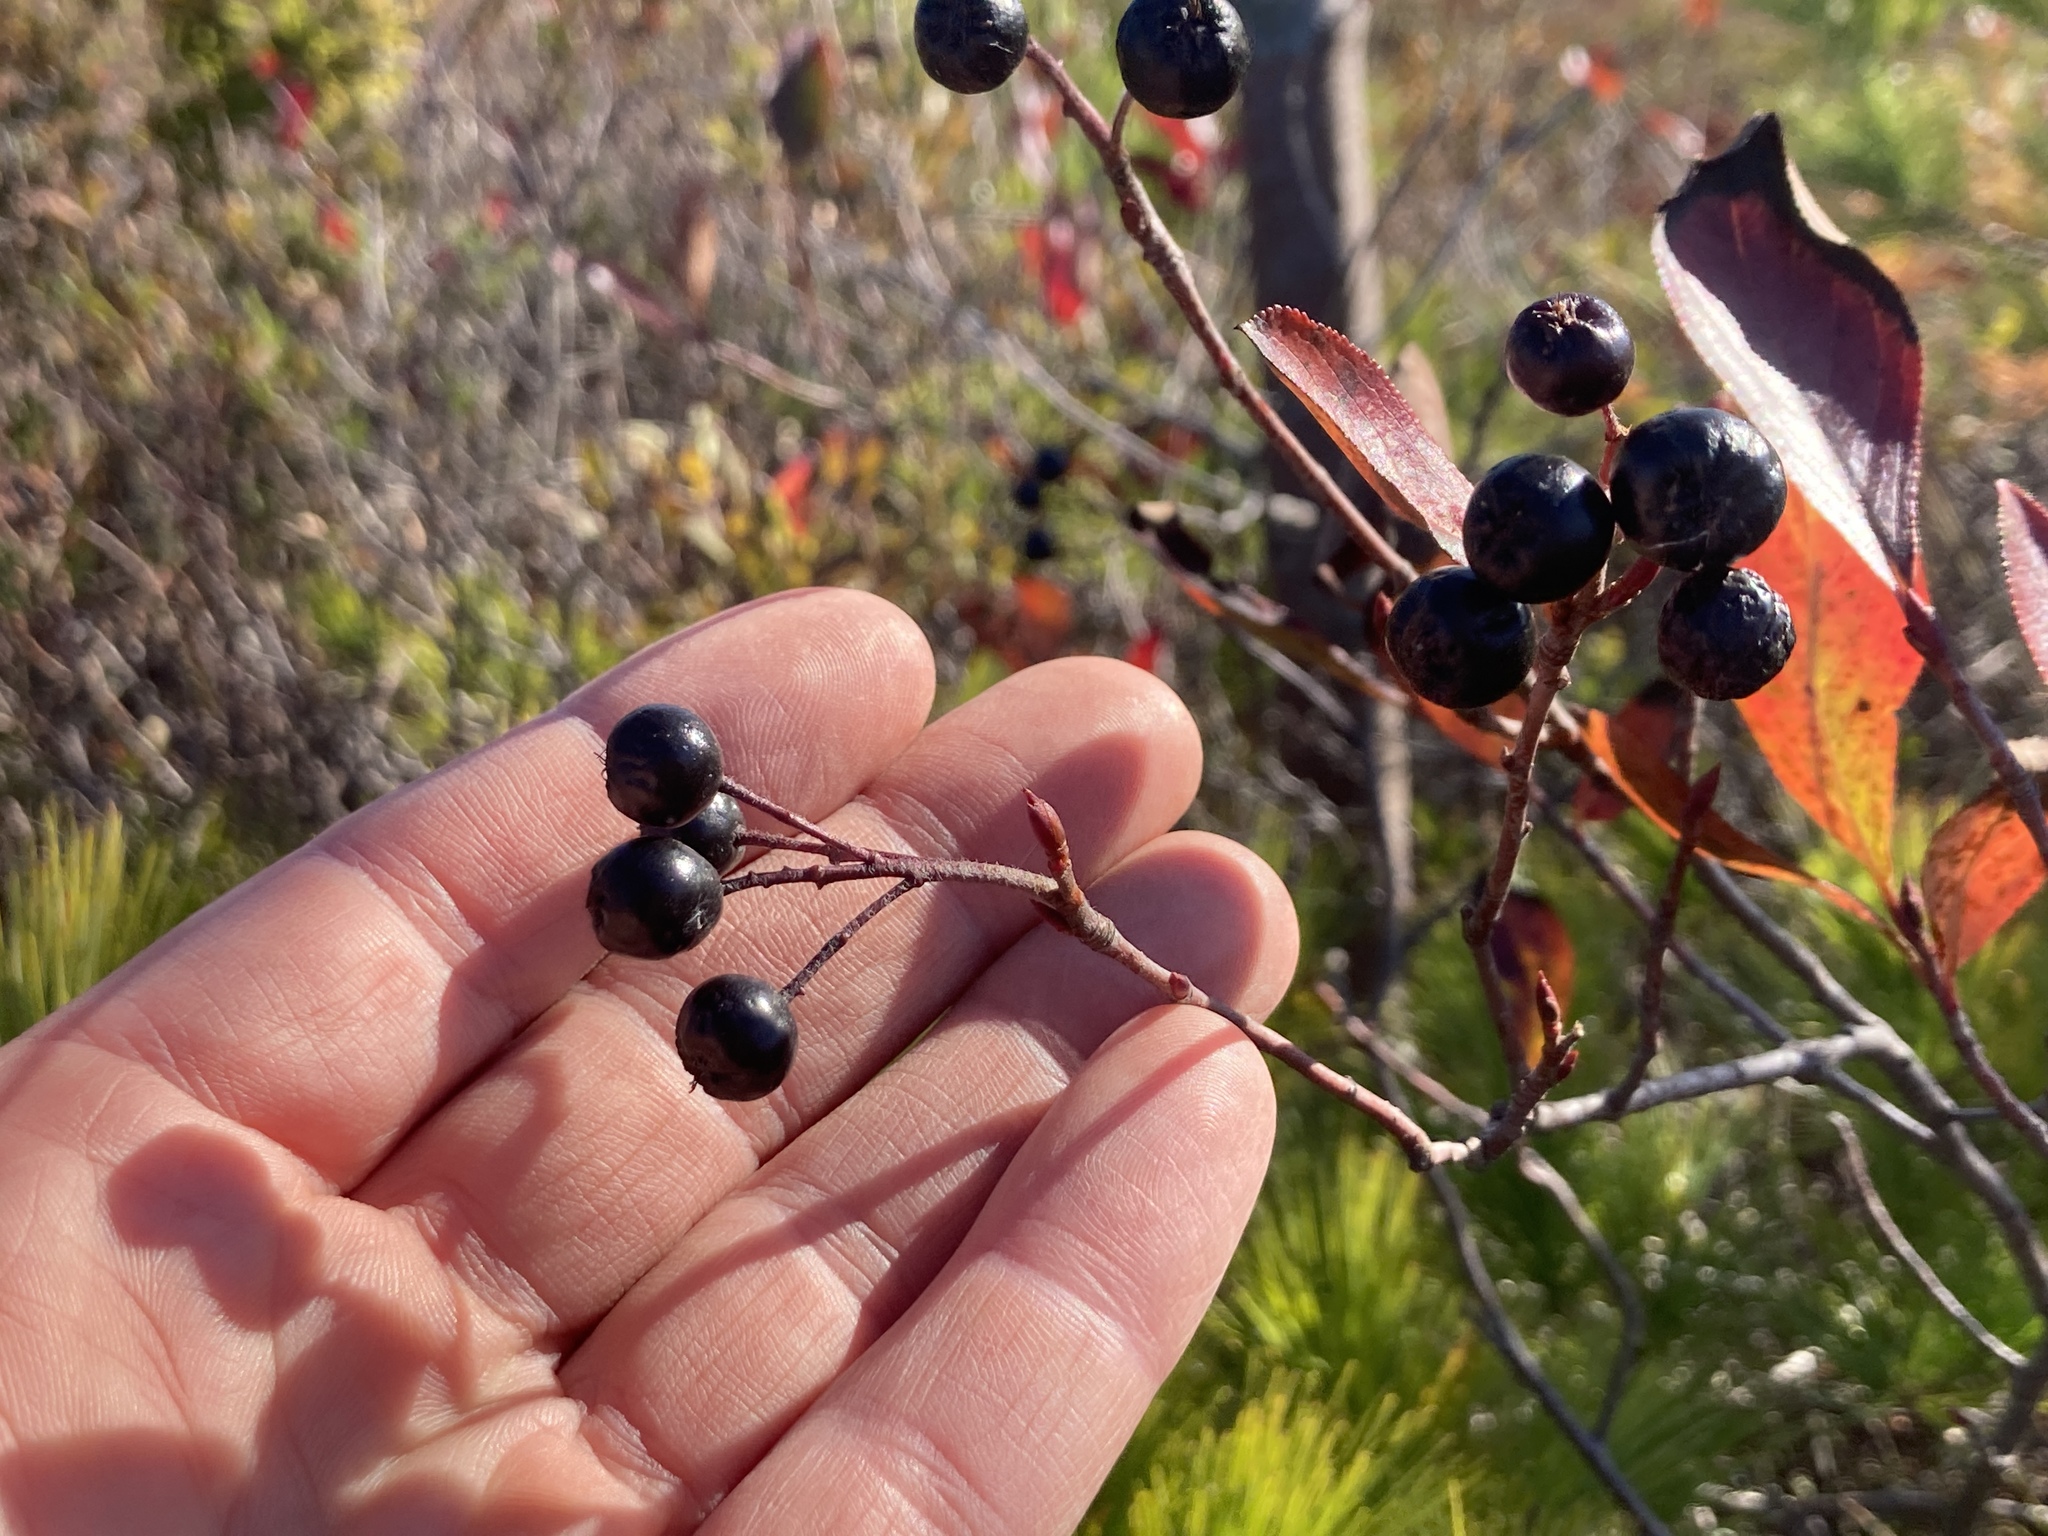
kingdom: Plantae
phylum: Tracheophyta
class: Magnoliopsida
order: Rosales
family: Rosaceae
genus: Aronia
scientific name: Aronia melanocarpa
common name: Black chokeberry
